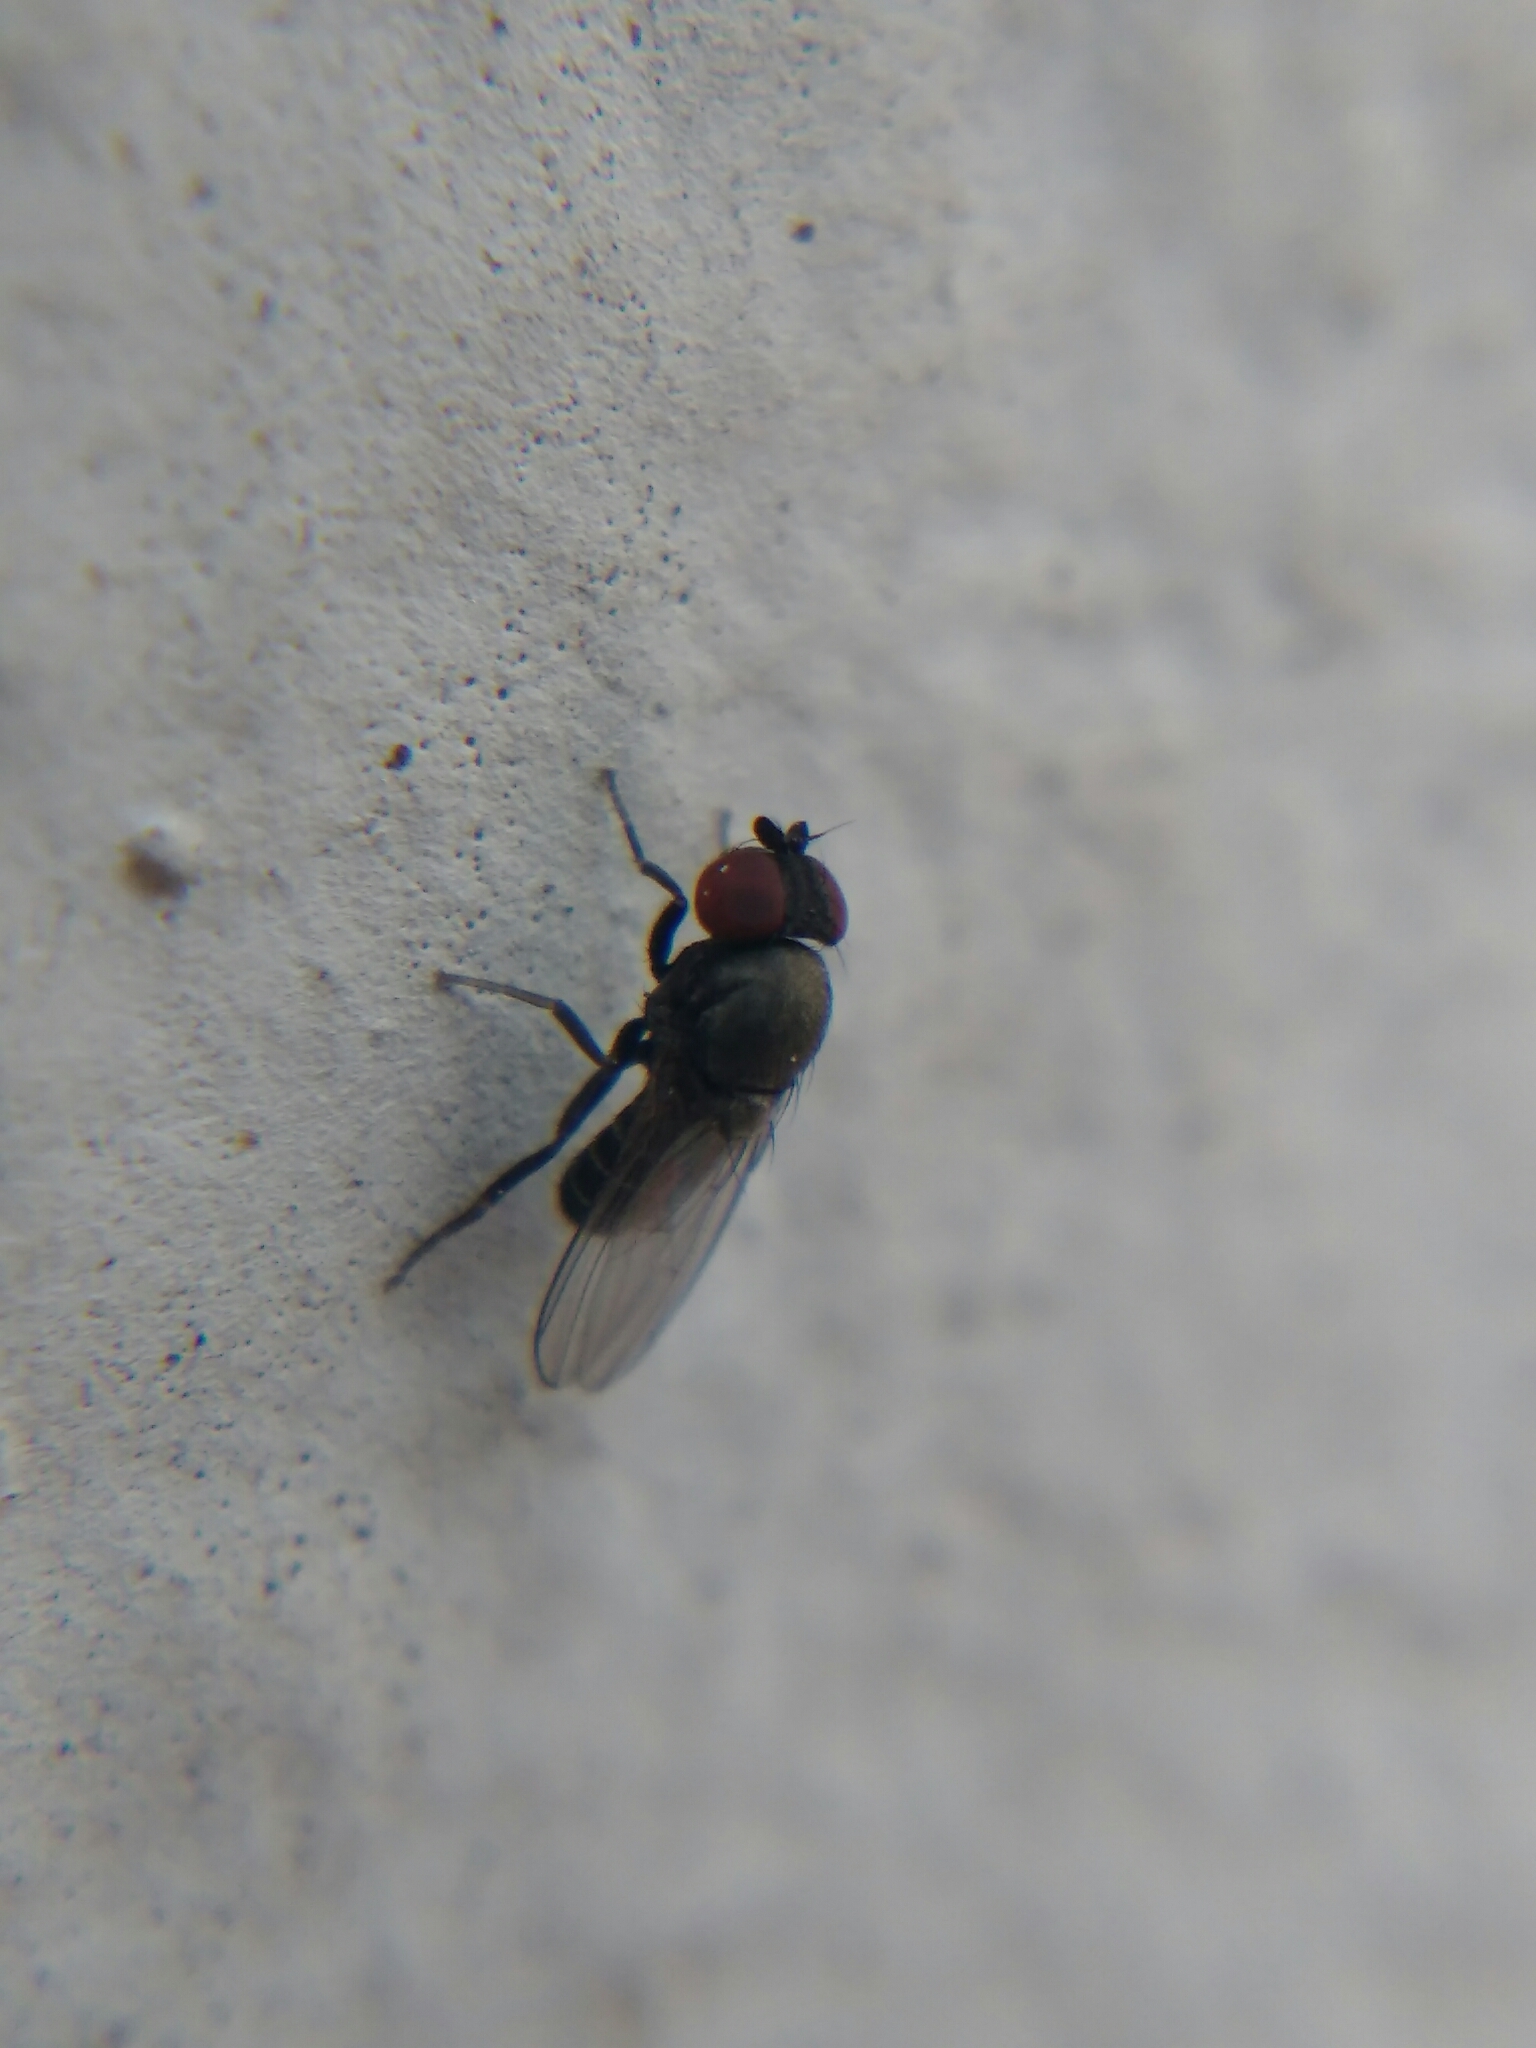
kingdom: Animalia
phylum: Arthropoda
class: Insecta
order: Diptera
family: Drosophilidae
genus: Cacoxenus
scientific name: Cacoxenus indagator
